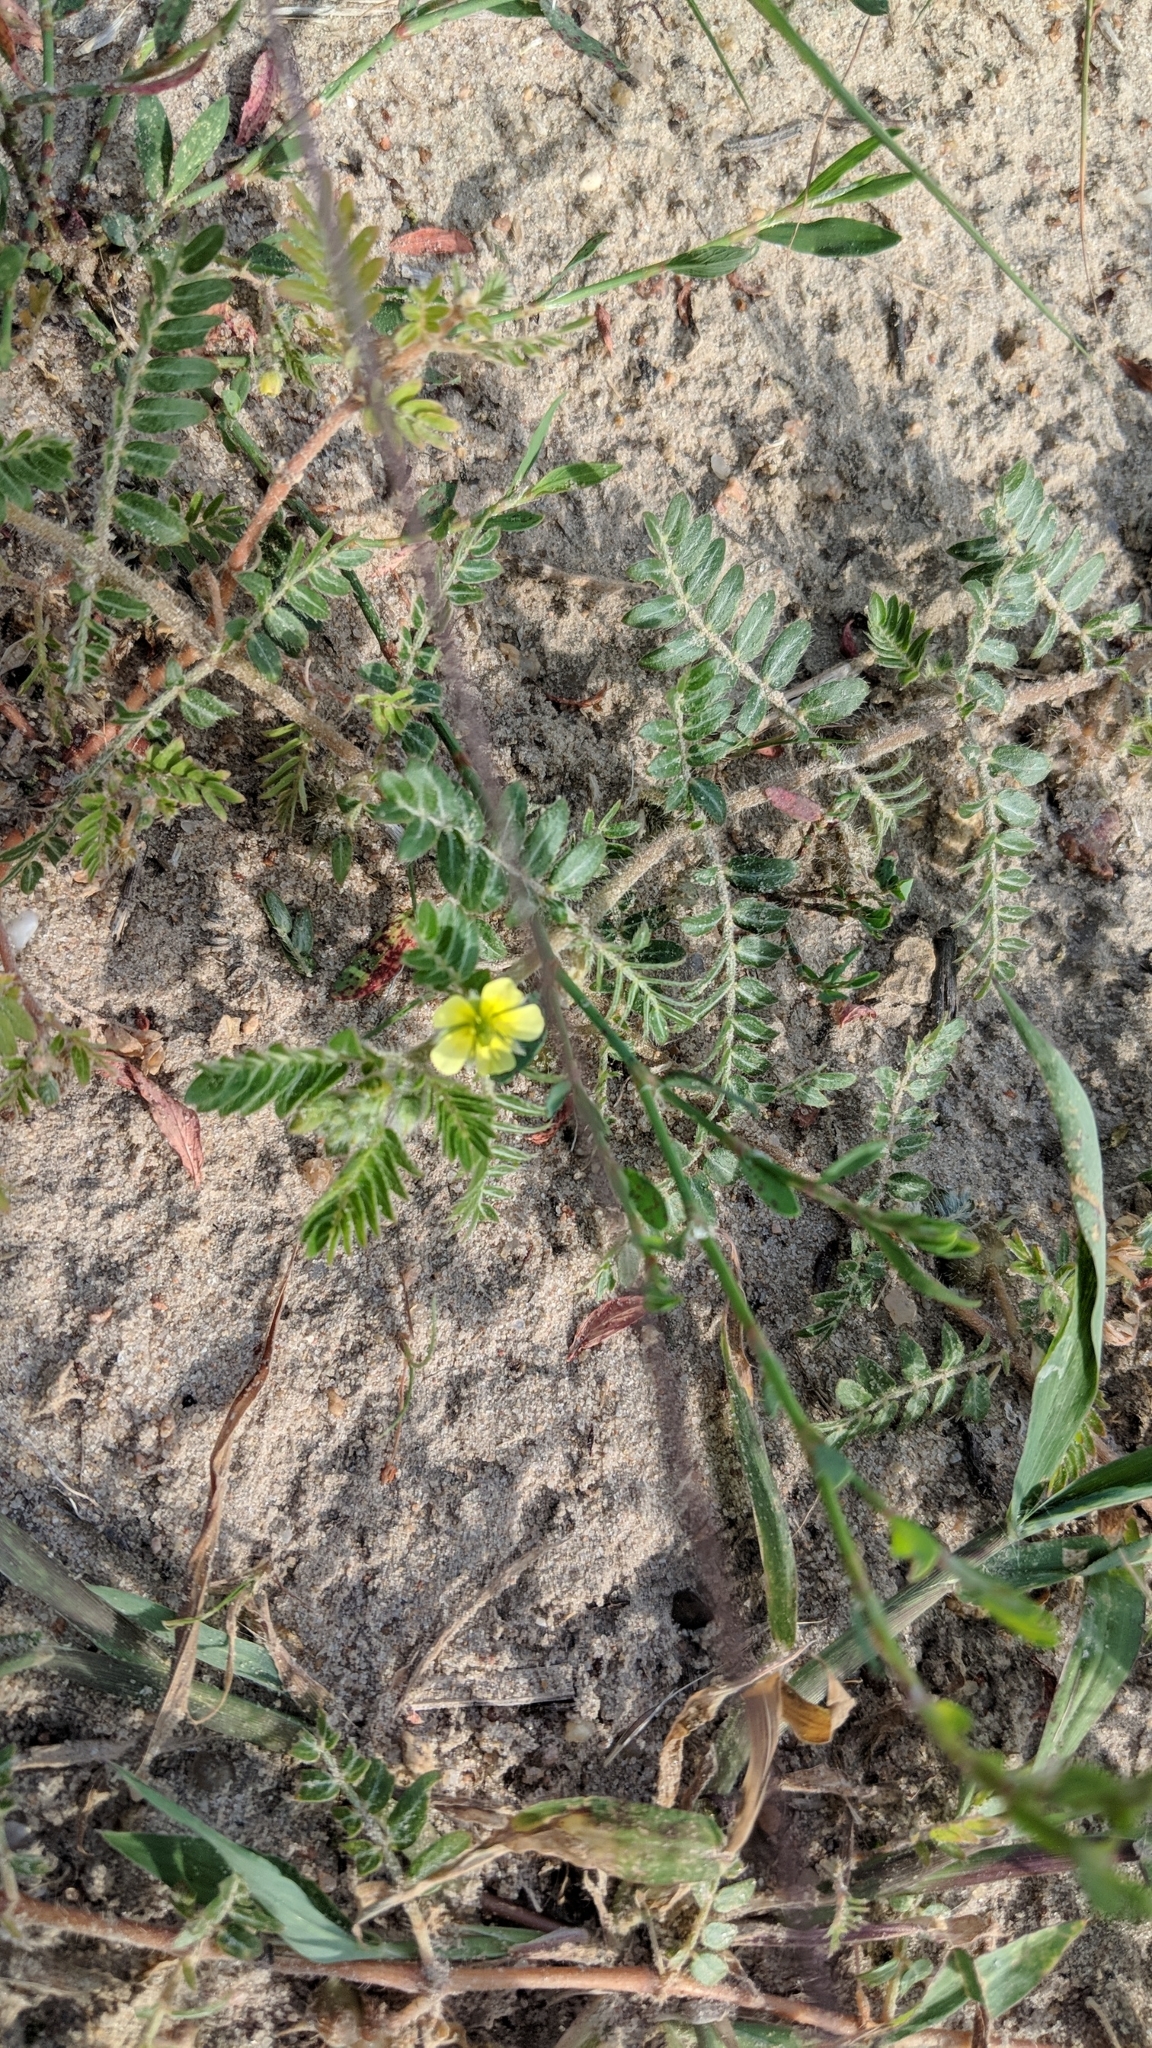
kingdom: Plantae
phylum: Tracheophyta
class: Magnoliopsida
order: Zygophyllales
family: Zygophyllaceae
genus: Tribulus
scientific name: Tribulus terrestris
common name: Puncturevine
